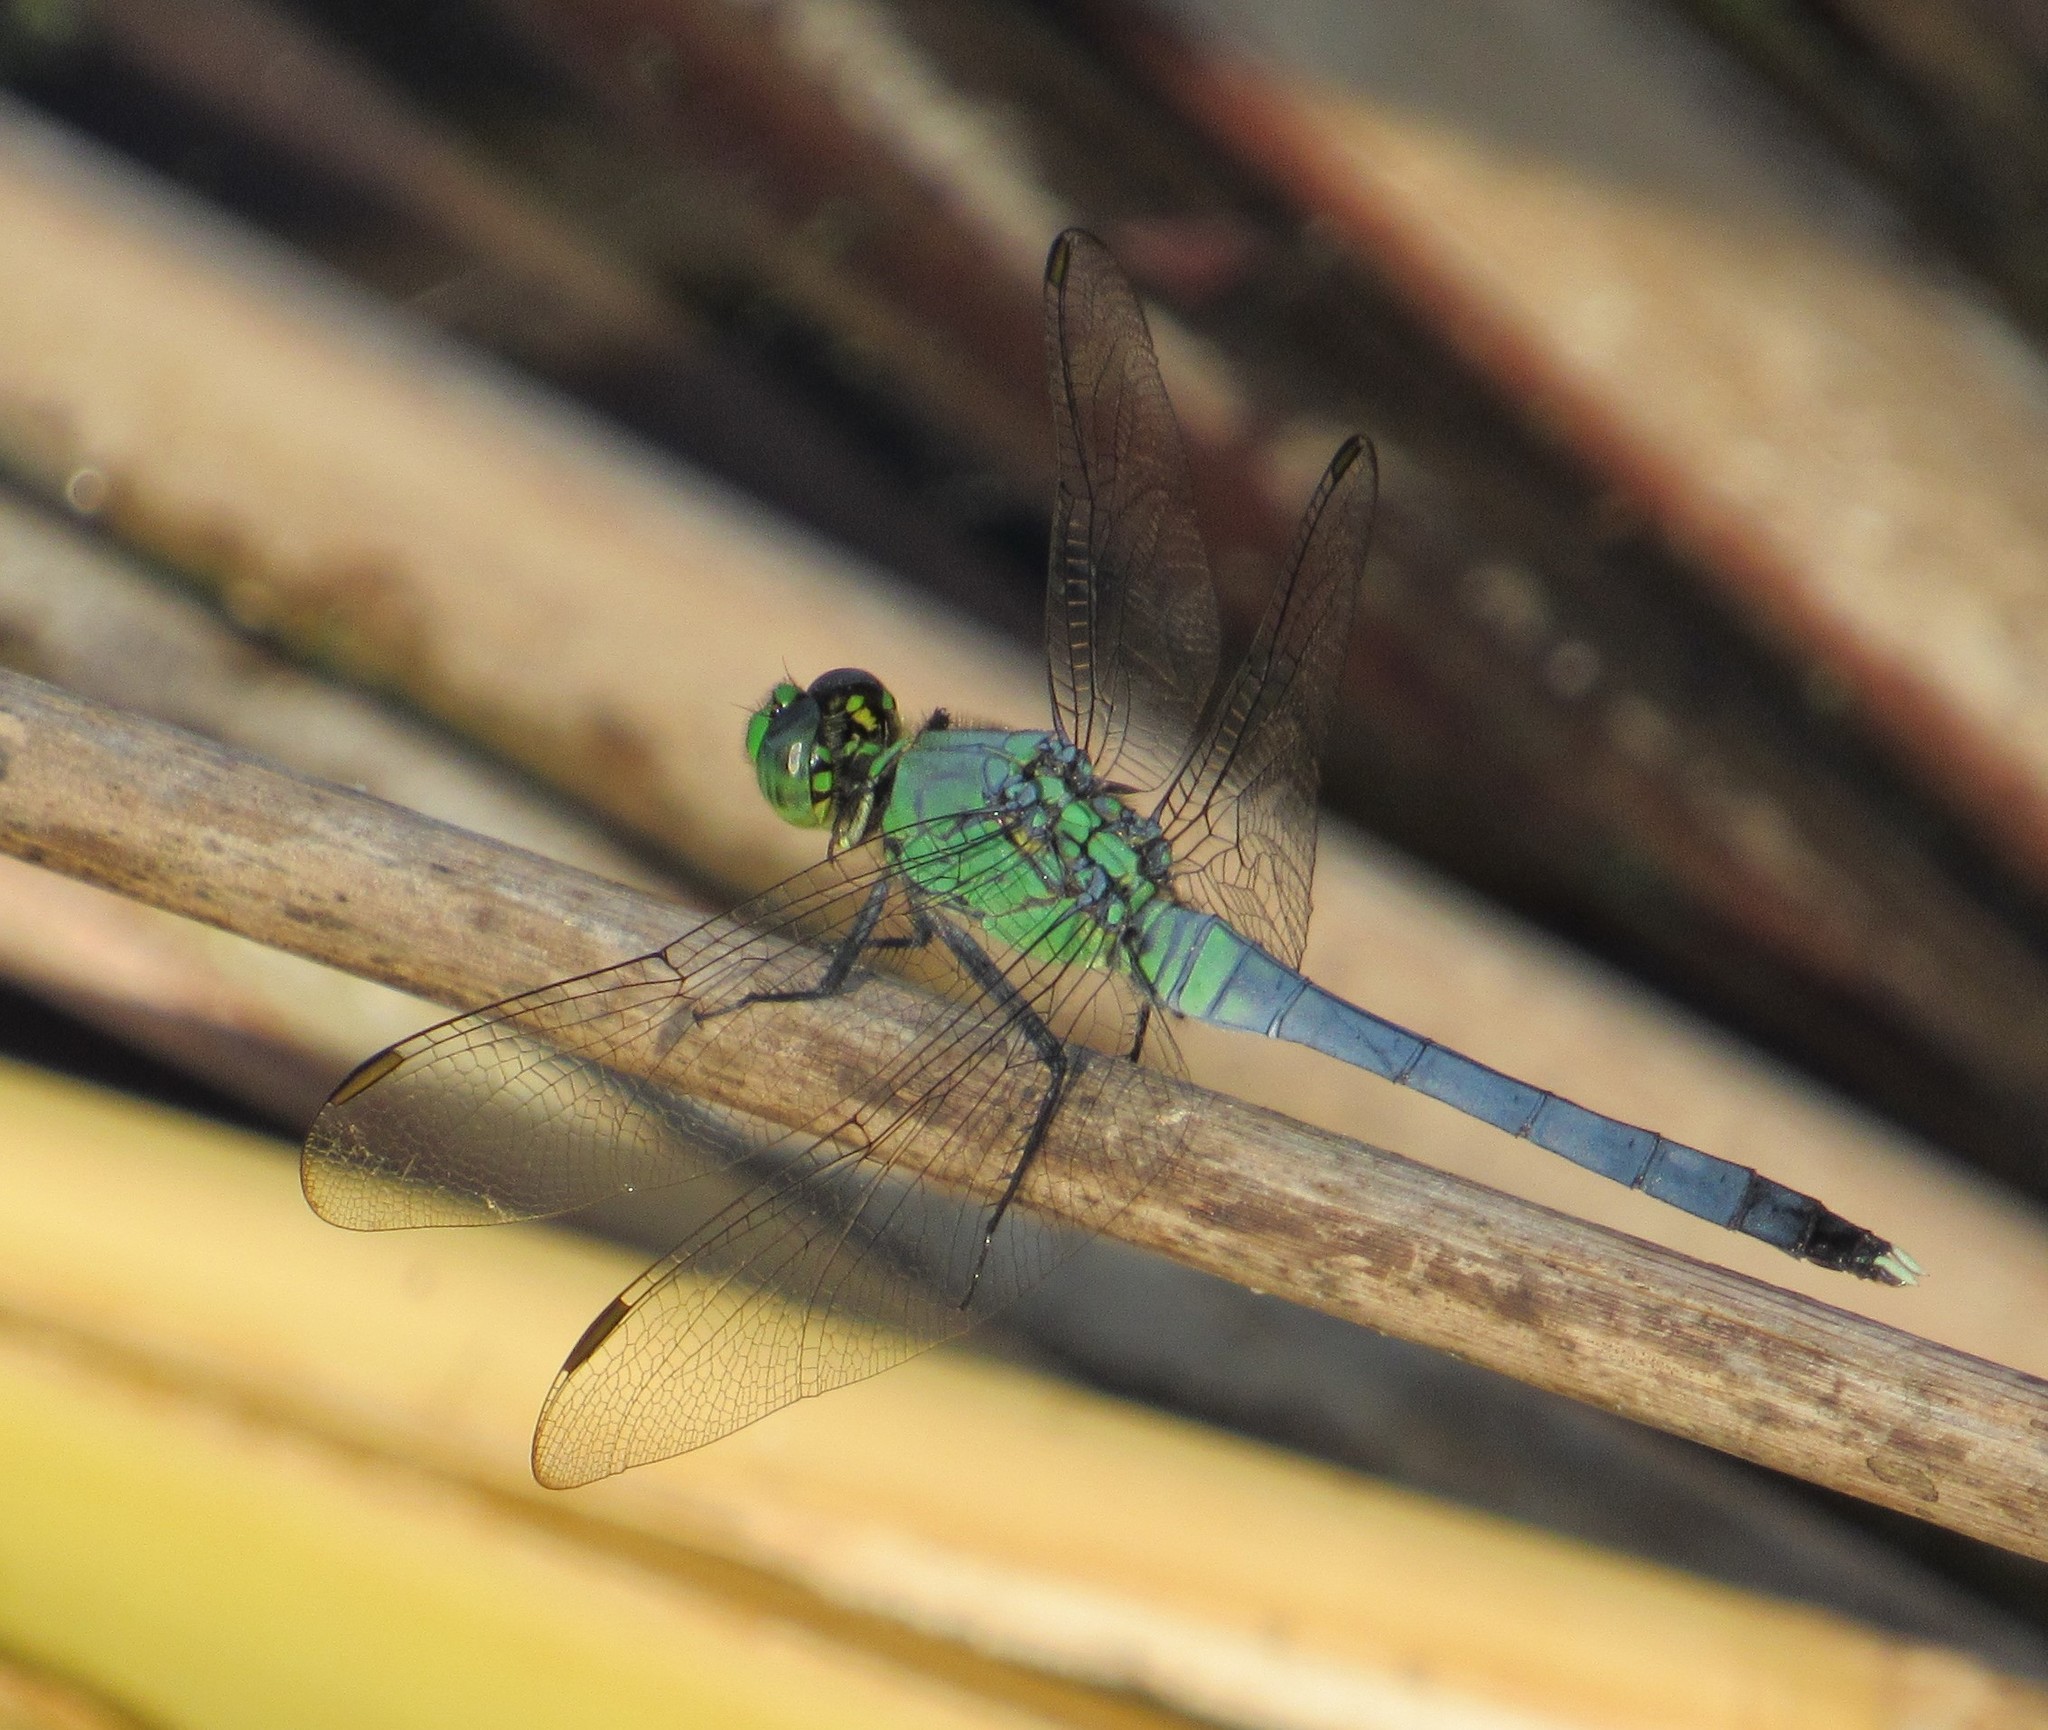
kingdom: Animalia
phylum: Arthropoda
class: Insecta
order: Odonata
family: Libellulidae
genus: Erythemis
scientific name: Erythemis simplicicollis
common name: Eastern pondhawk
